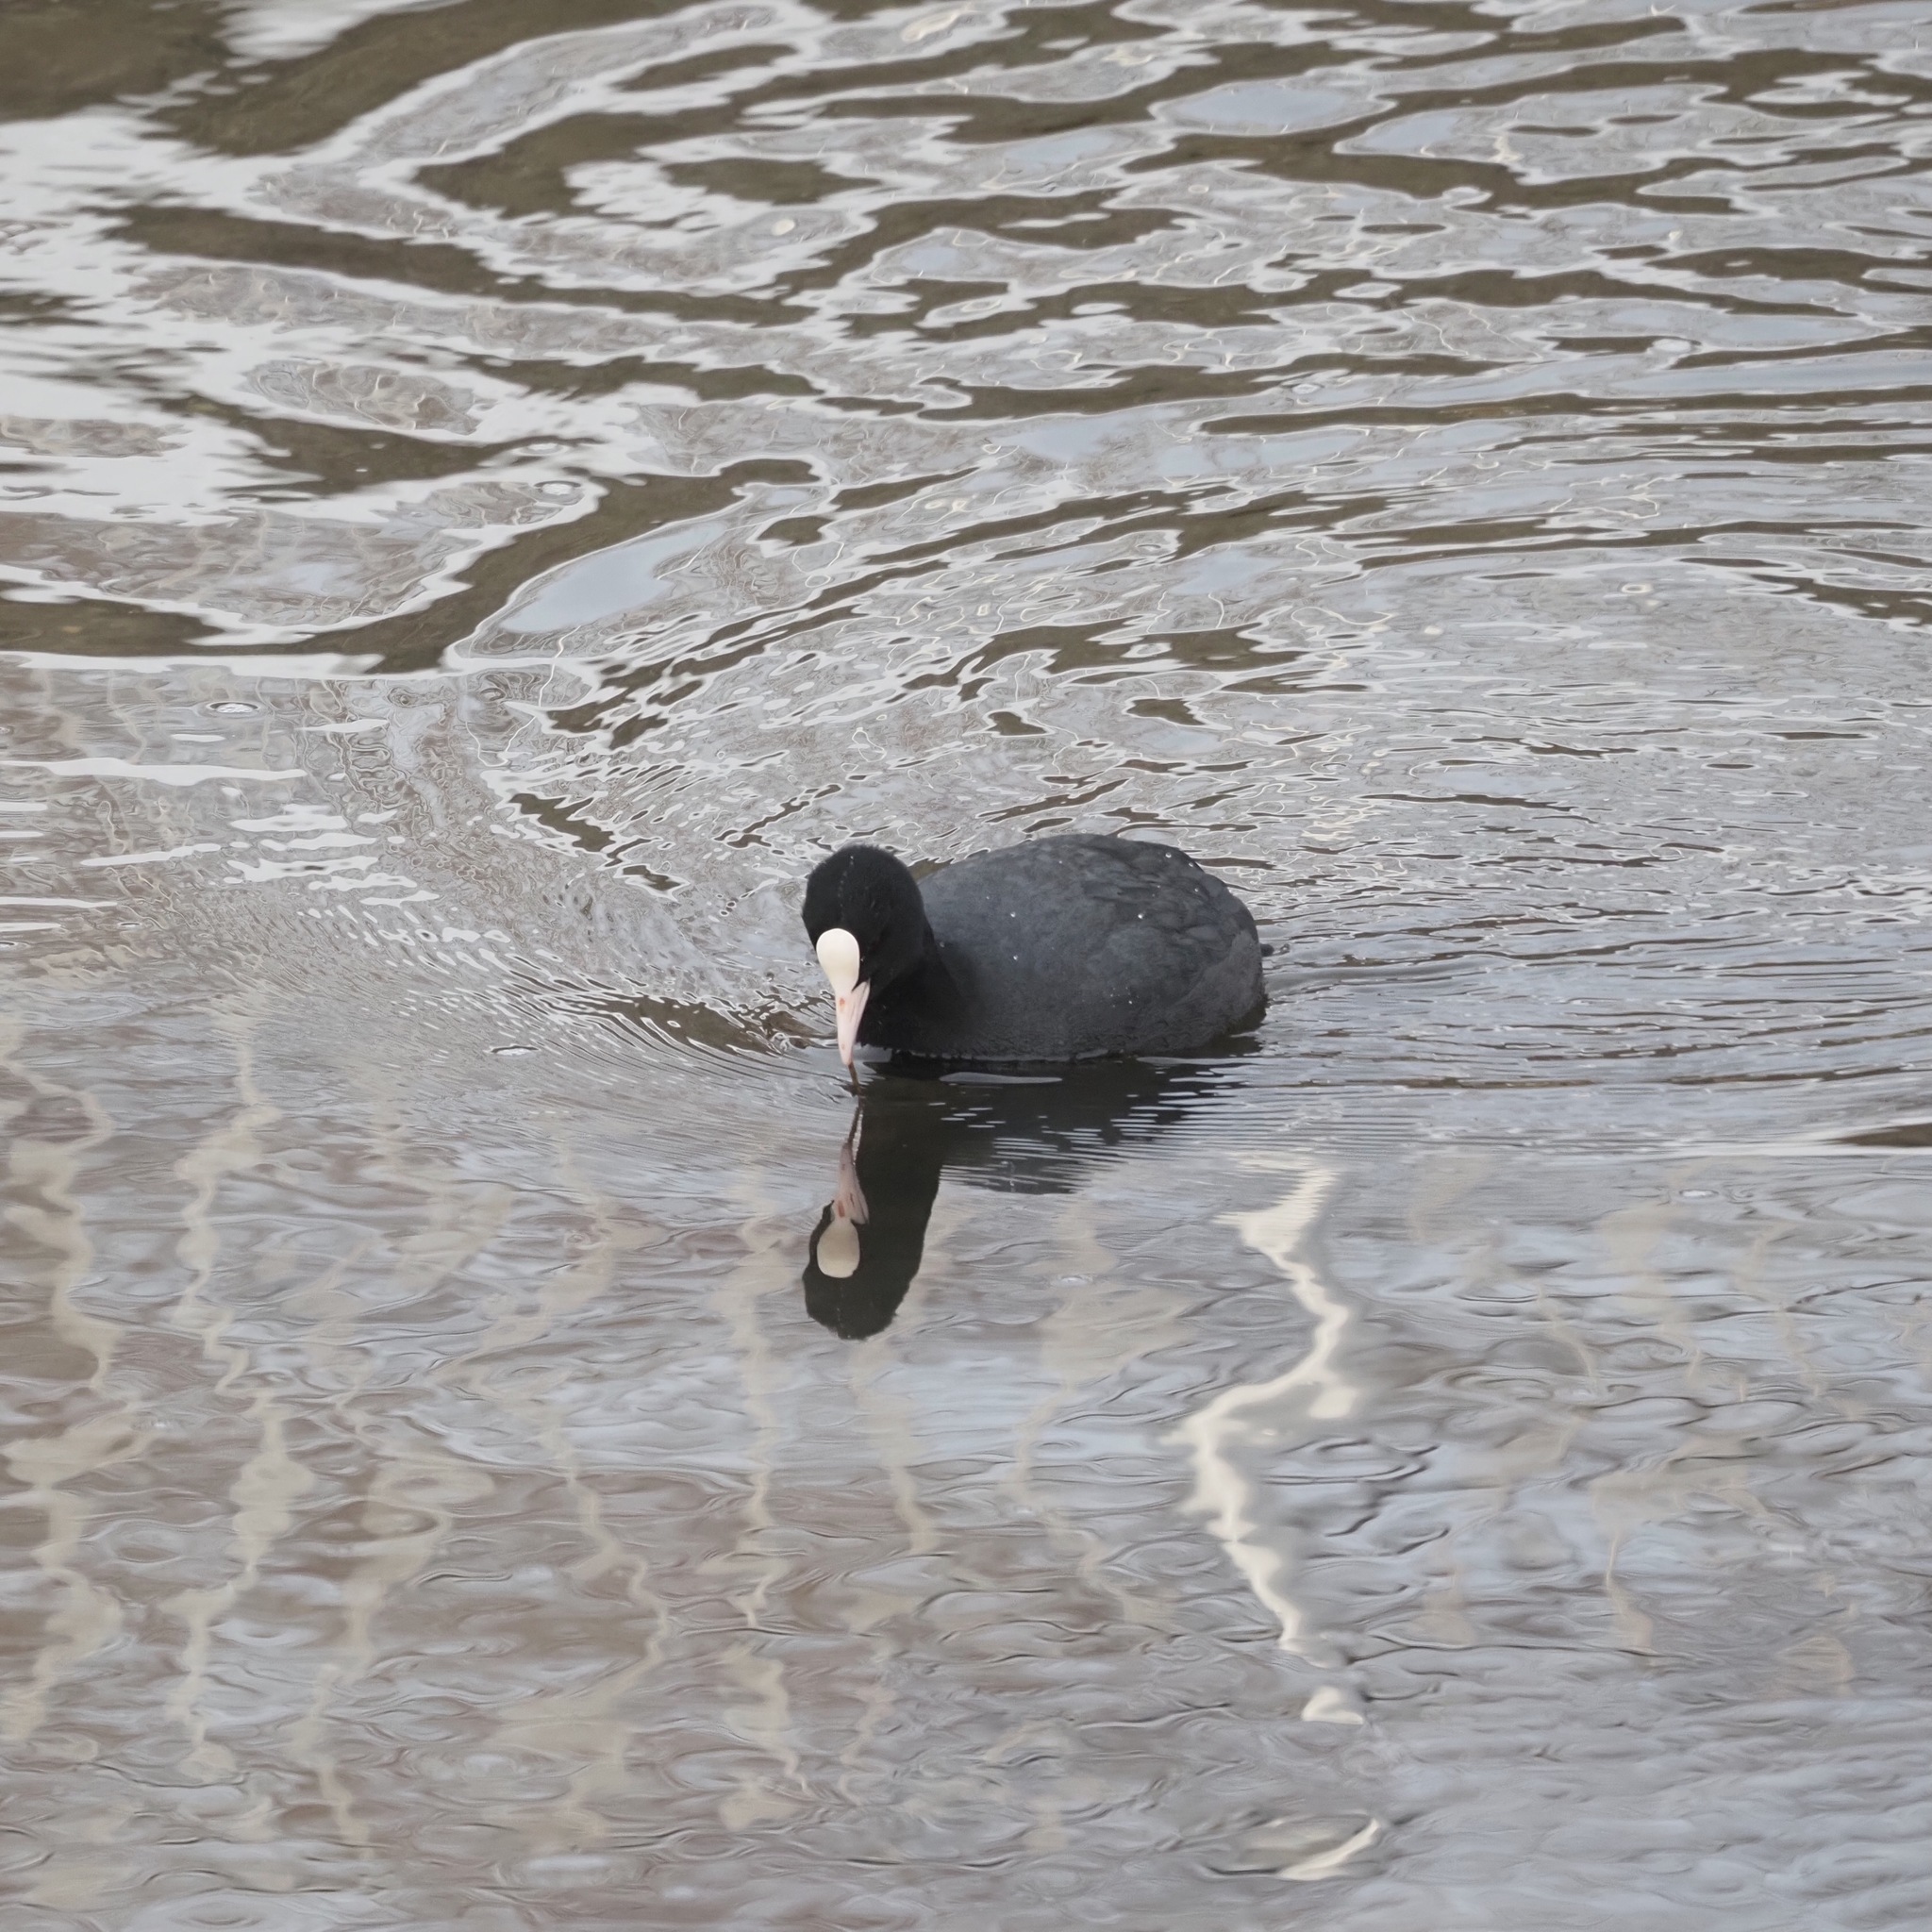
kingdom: Animalia
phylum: Chordata
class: Aves
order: Gruiformes
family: Rallidae
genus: Fulica
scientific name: Fulica atra
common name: Eurasian coot
